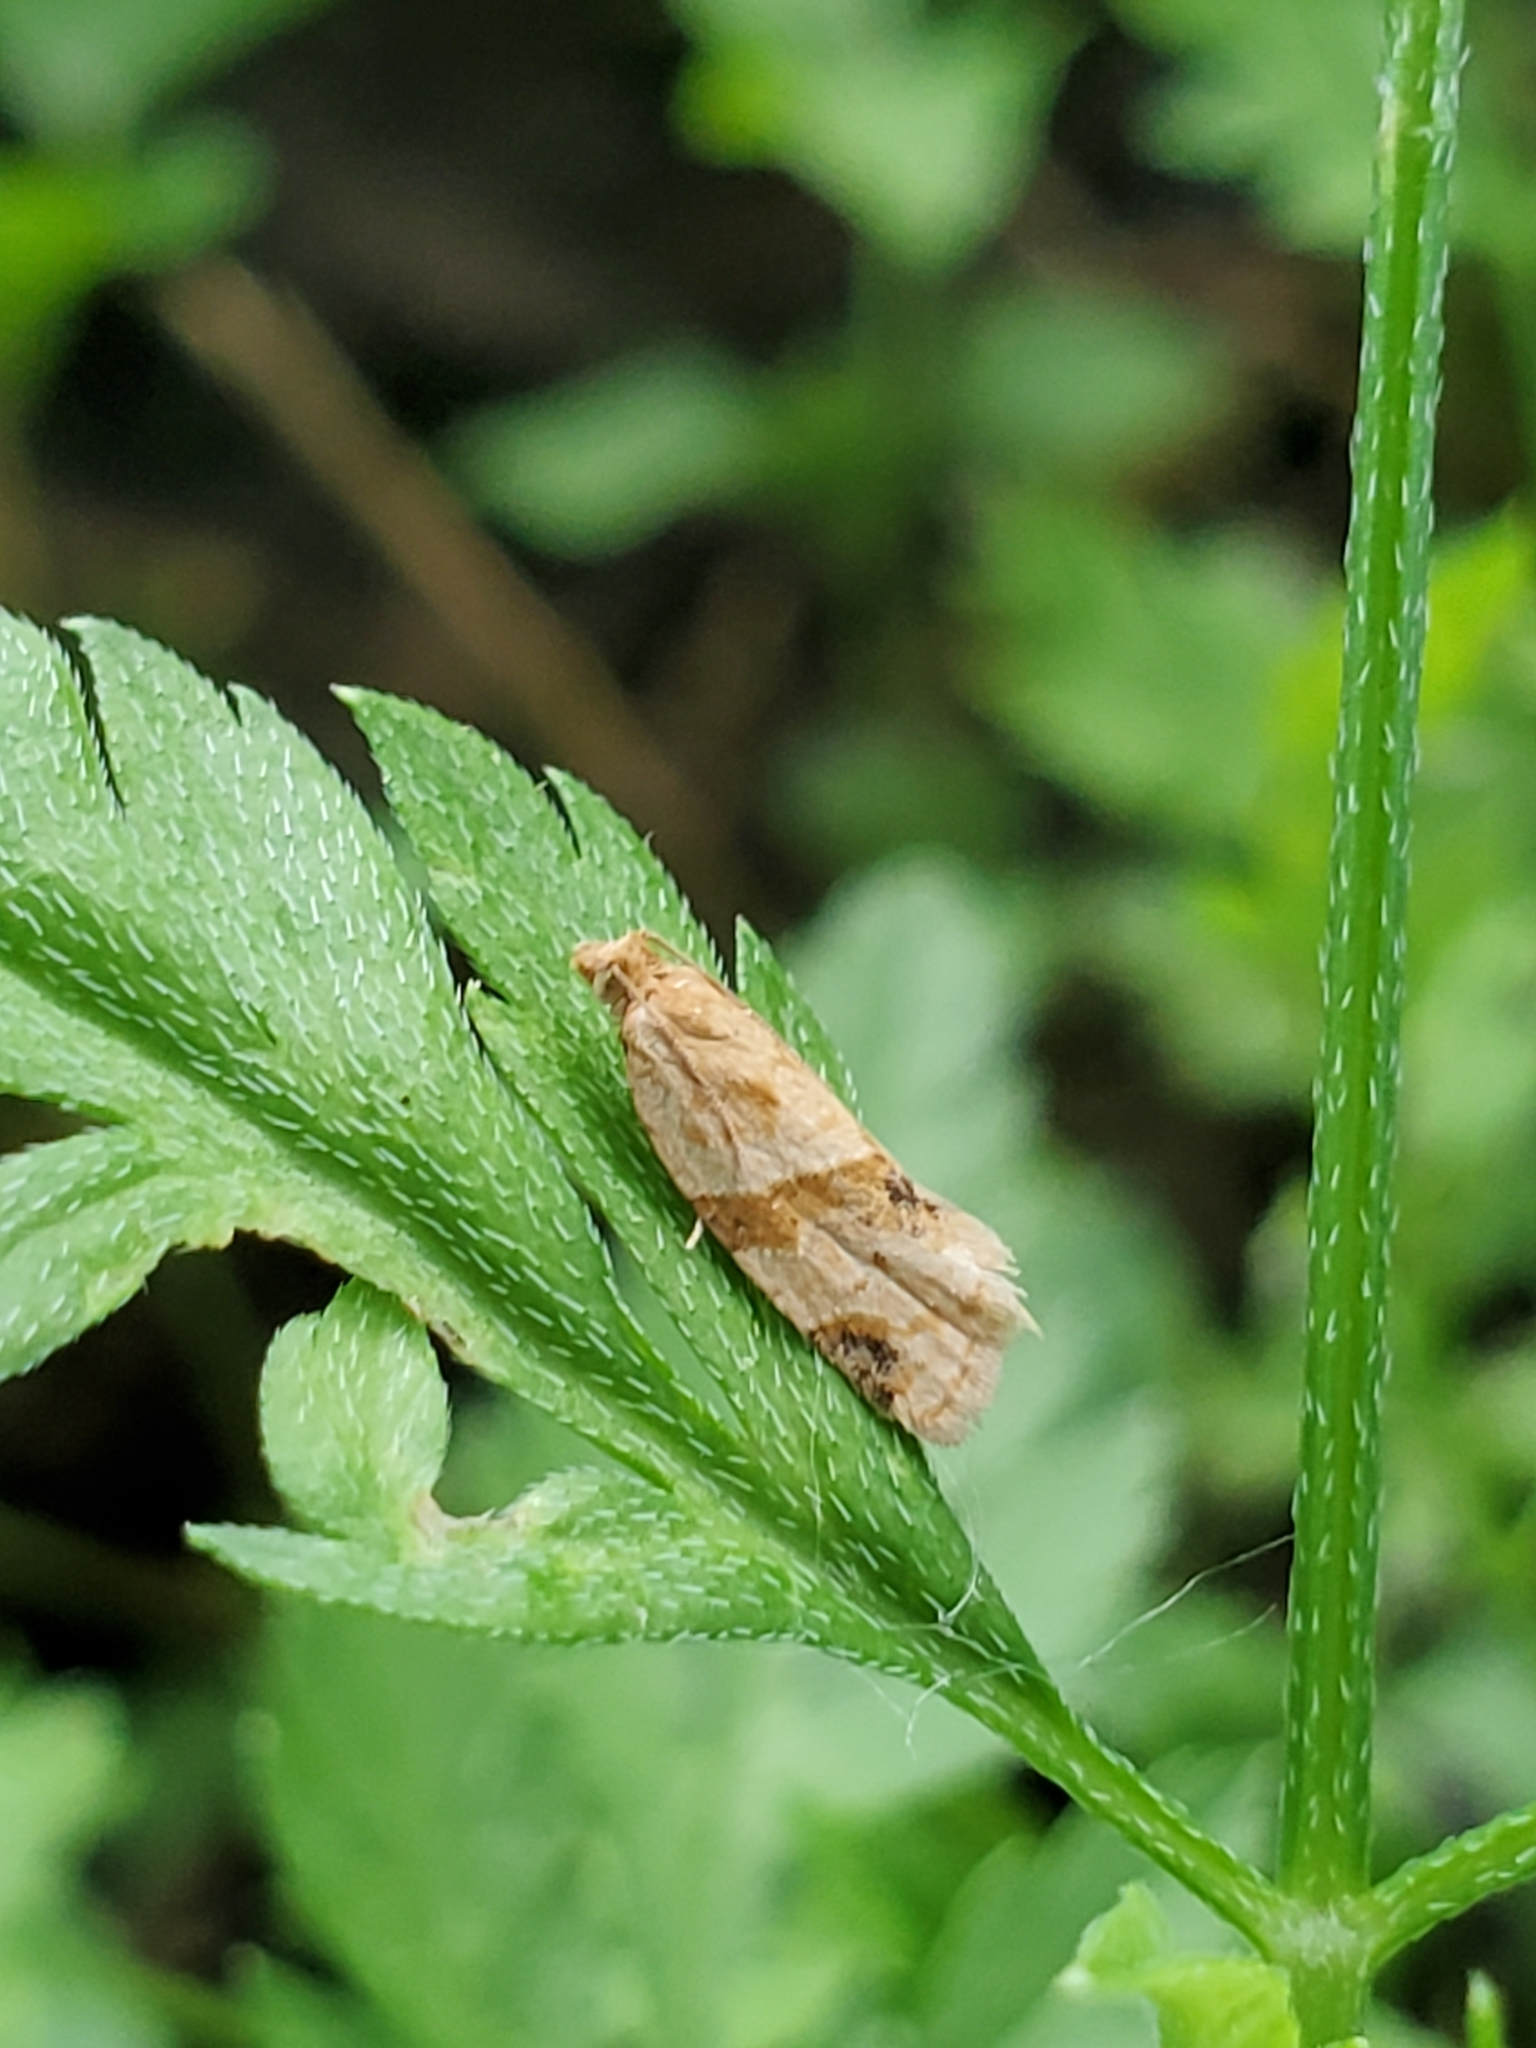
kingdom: Animalia
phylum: Arthropoda
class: Insecta
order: Lepidoptera
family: Tortricidae
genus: Clepsis
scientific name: Clepsis peritana
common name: Garden tortrix
